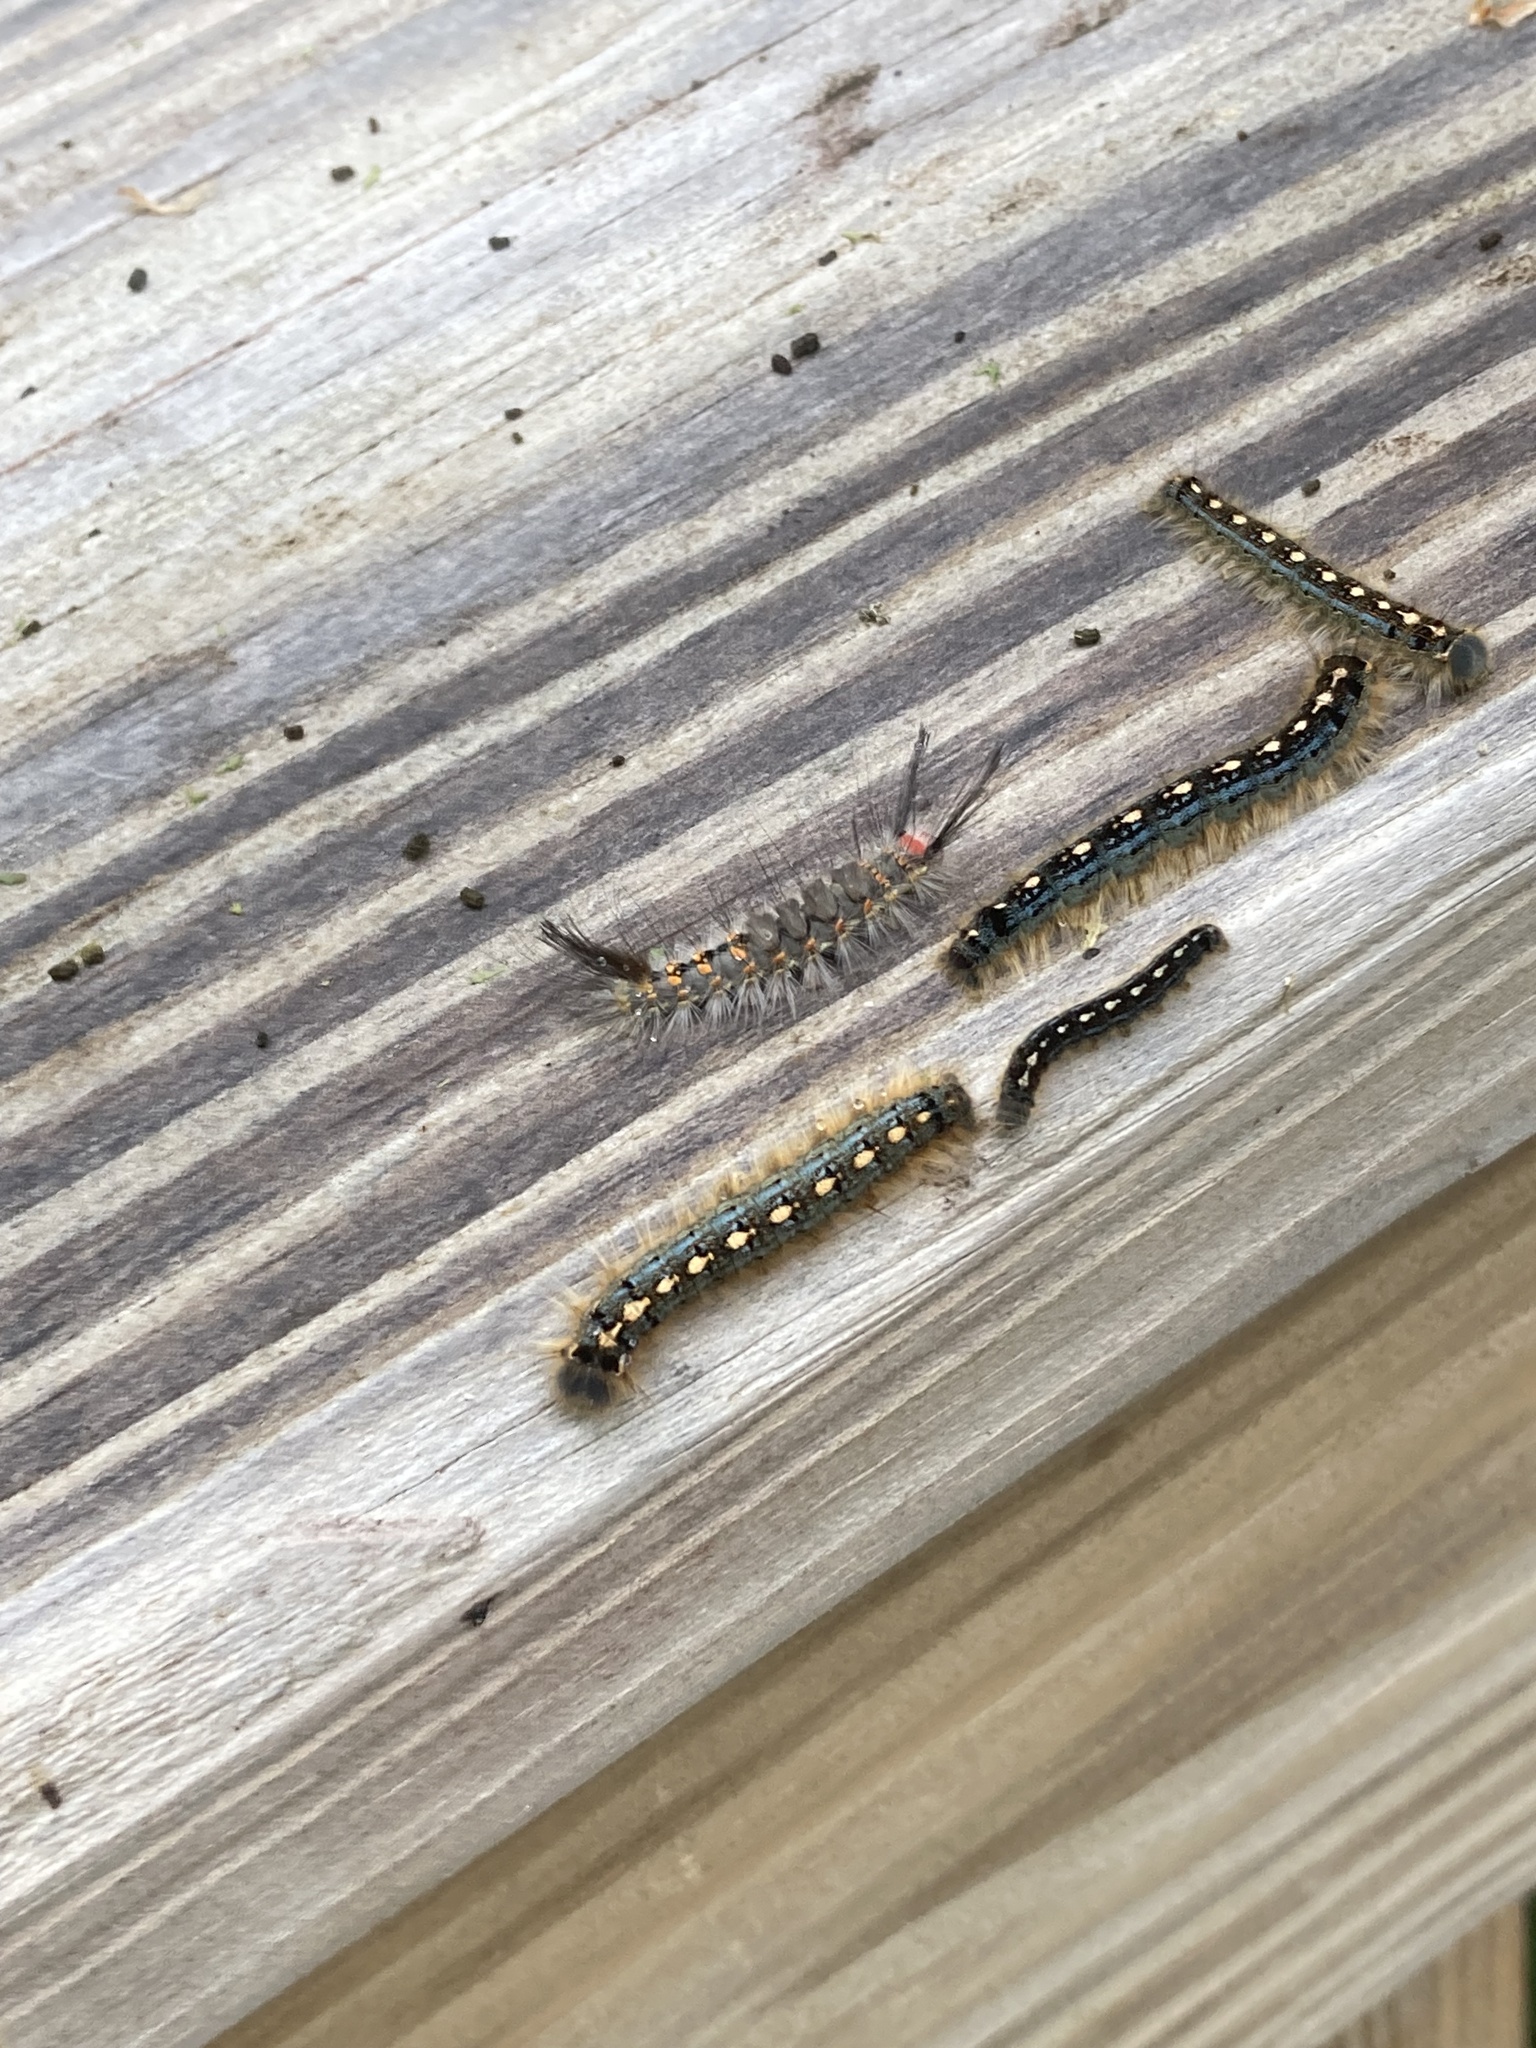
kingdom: Animalia
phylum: Arthropoda
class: Insecta
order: Lepidoptera
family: Erebidae
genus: Orgyia
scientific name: Orgyia detrita
